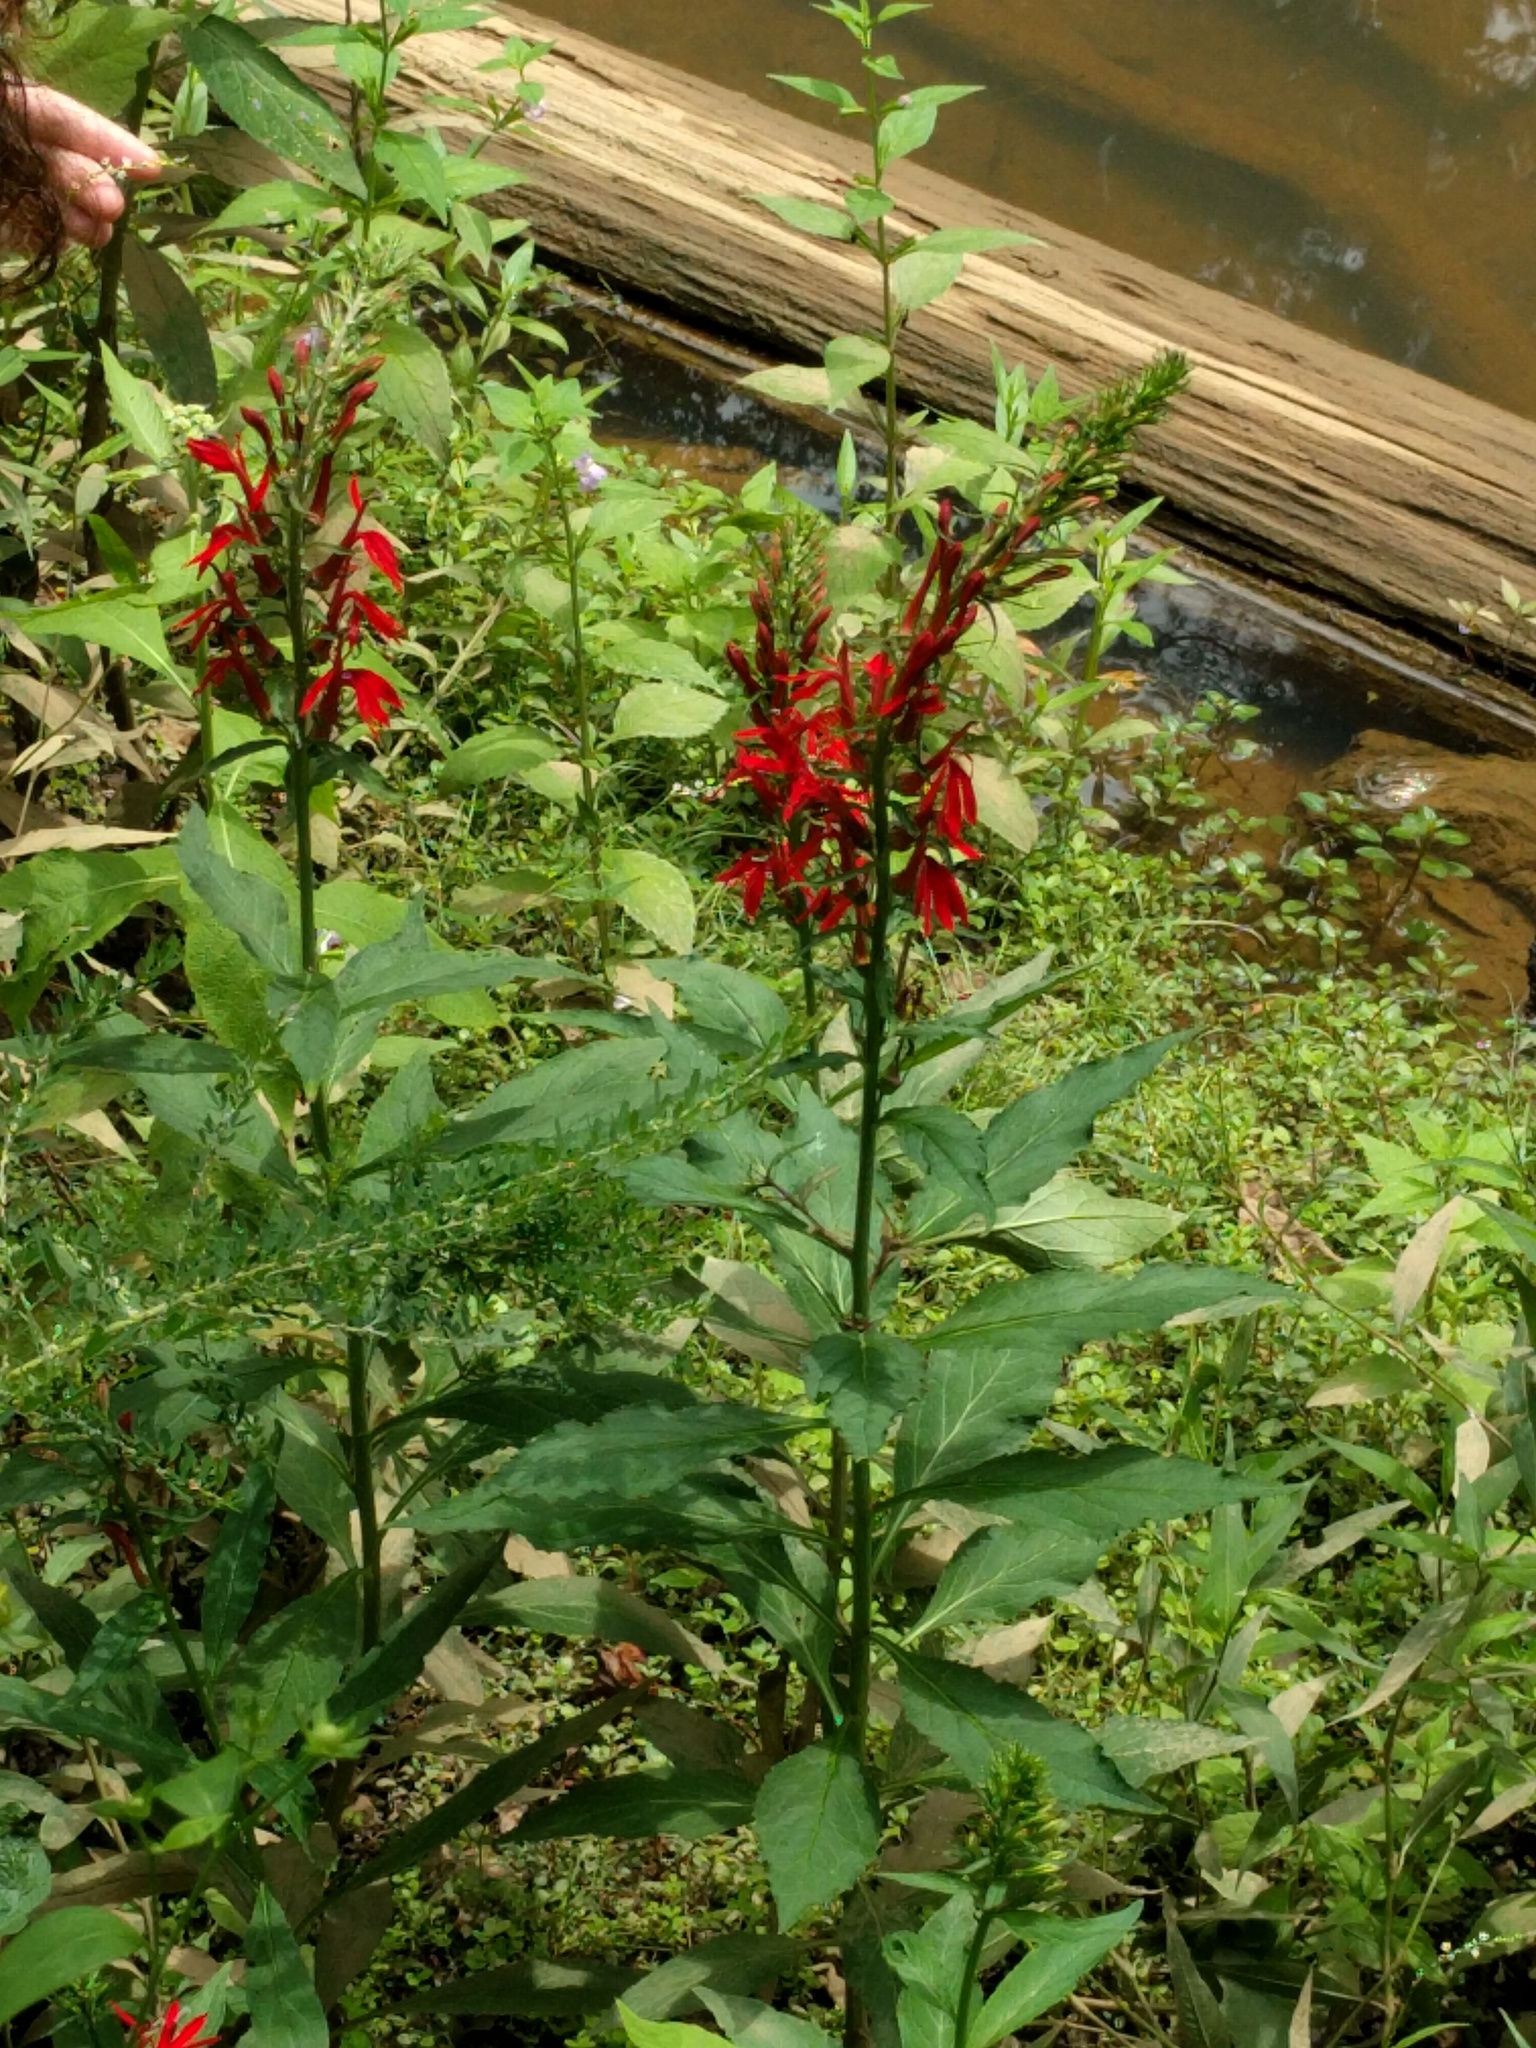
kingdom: Plantae
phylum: Tracheophyta
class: Magnoliopsida
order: Asterales
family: Campanulaceae
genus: Lobelia
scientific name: Lobelia cardinalis
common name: Cardinal flower
